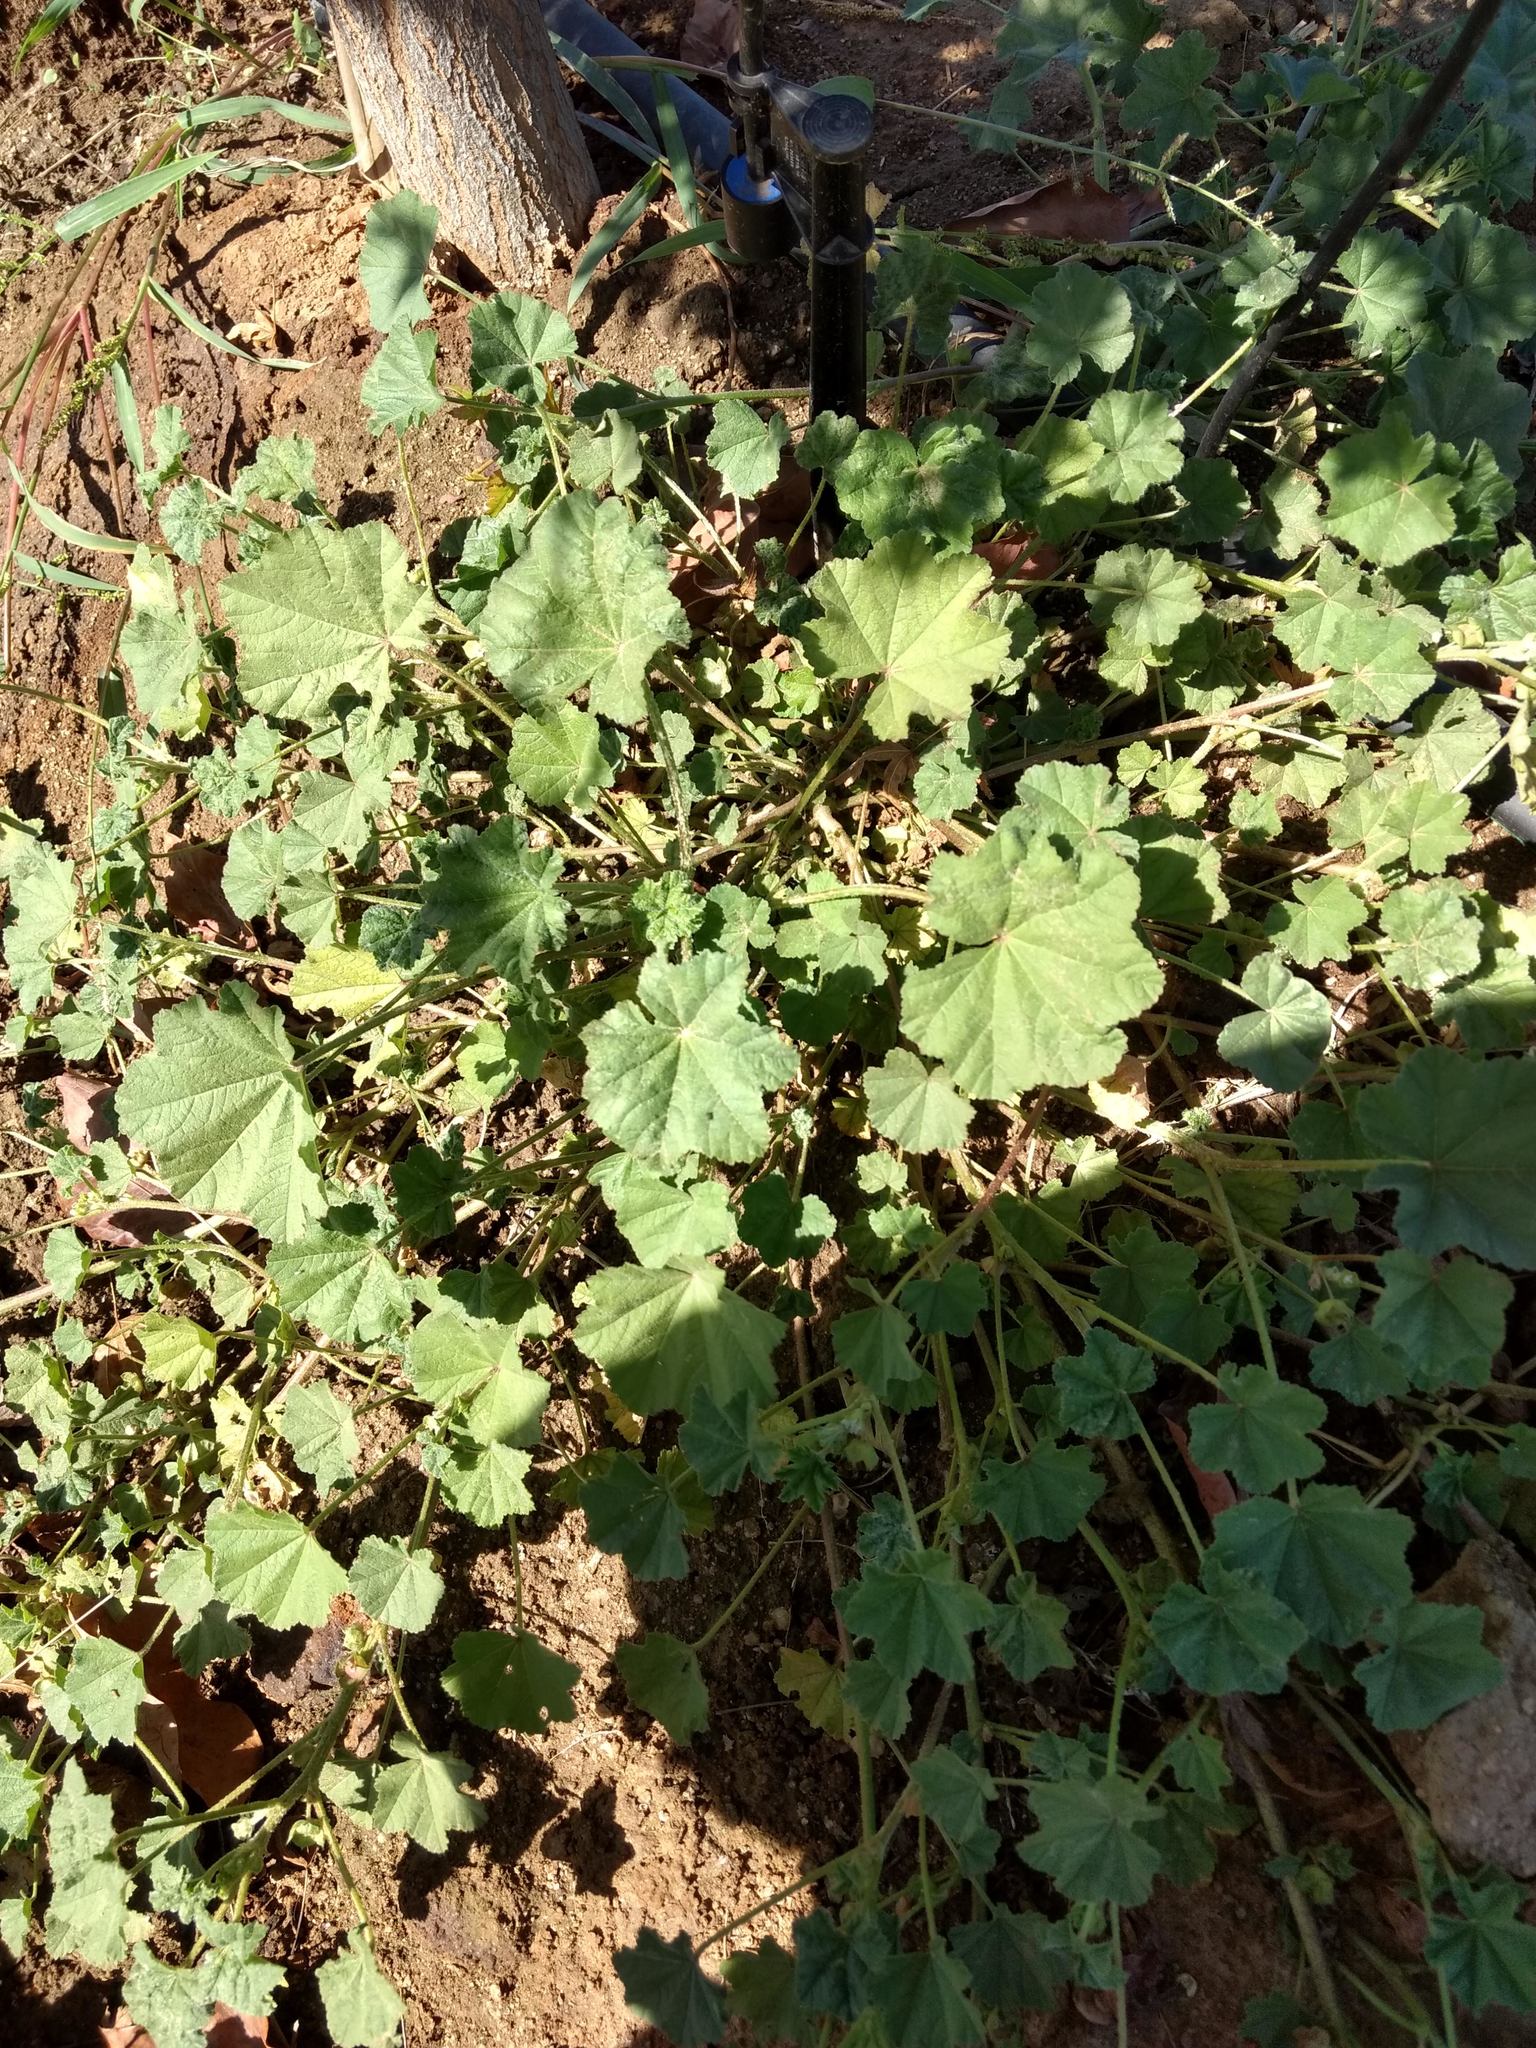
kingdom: Plantae
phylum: Tracheophyta
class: Magnoliopsida
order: Malvales
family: Malvaceae
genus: Malva
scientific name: Malva parviflora
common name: Least mallow
